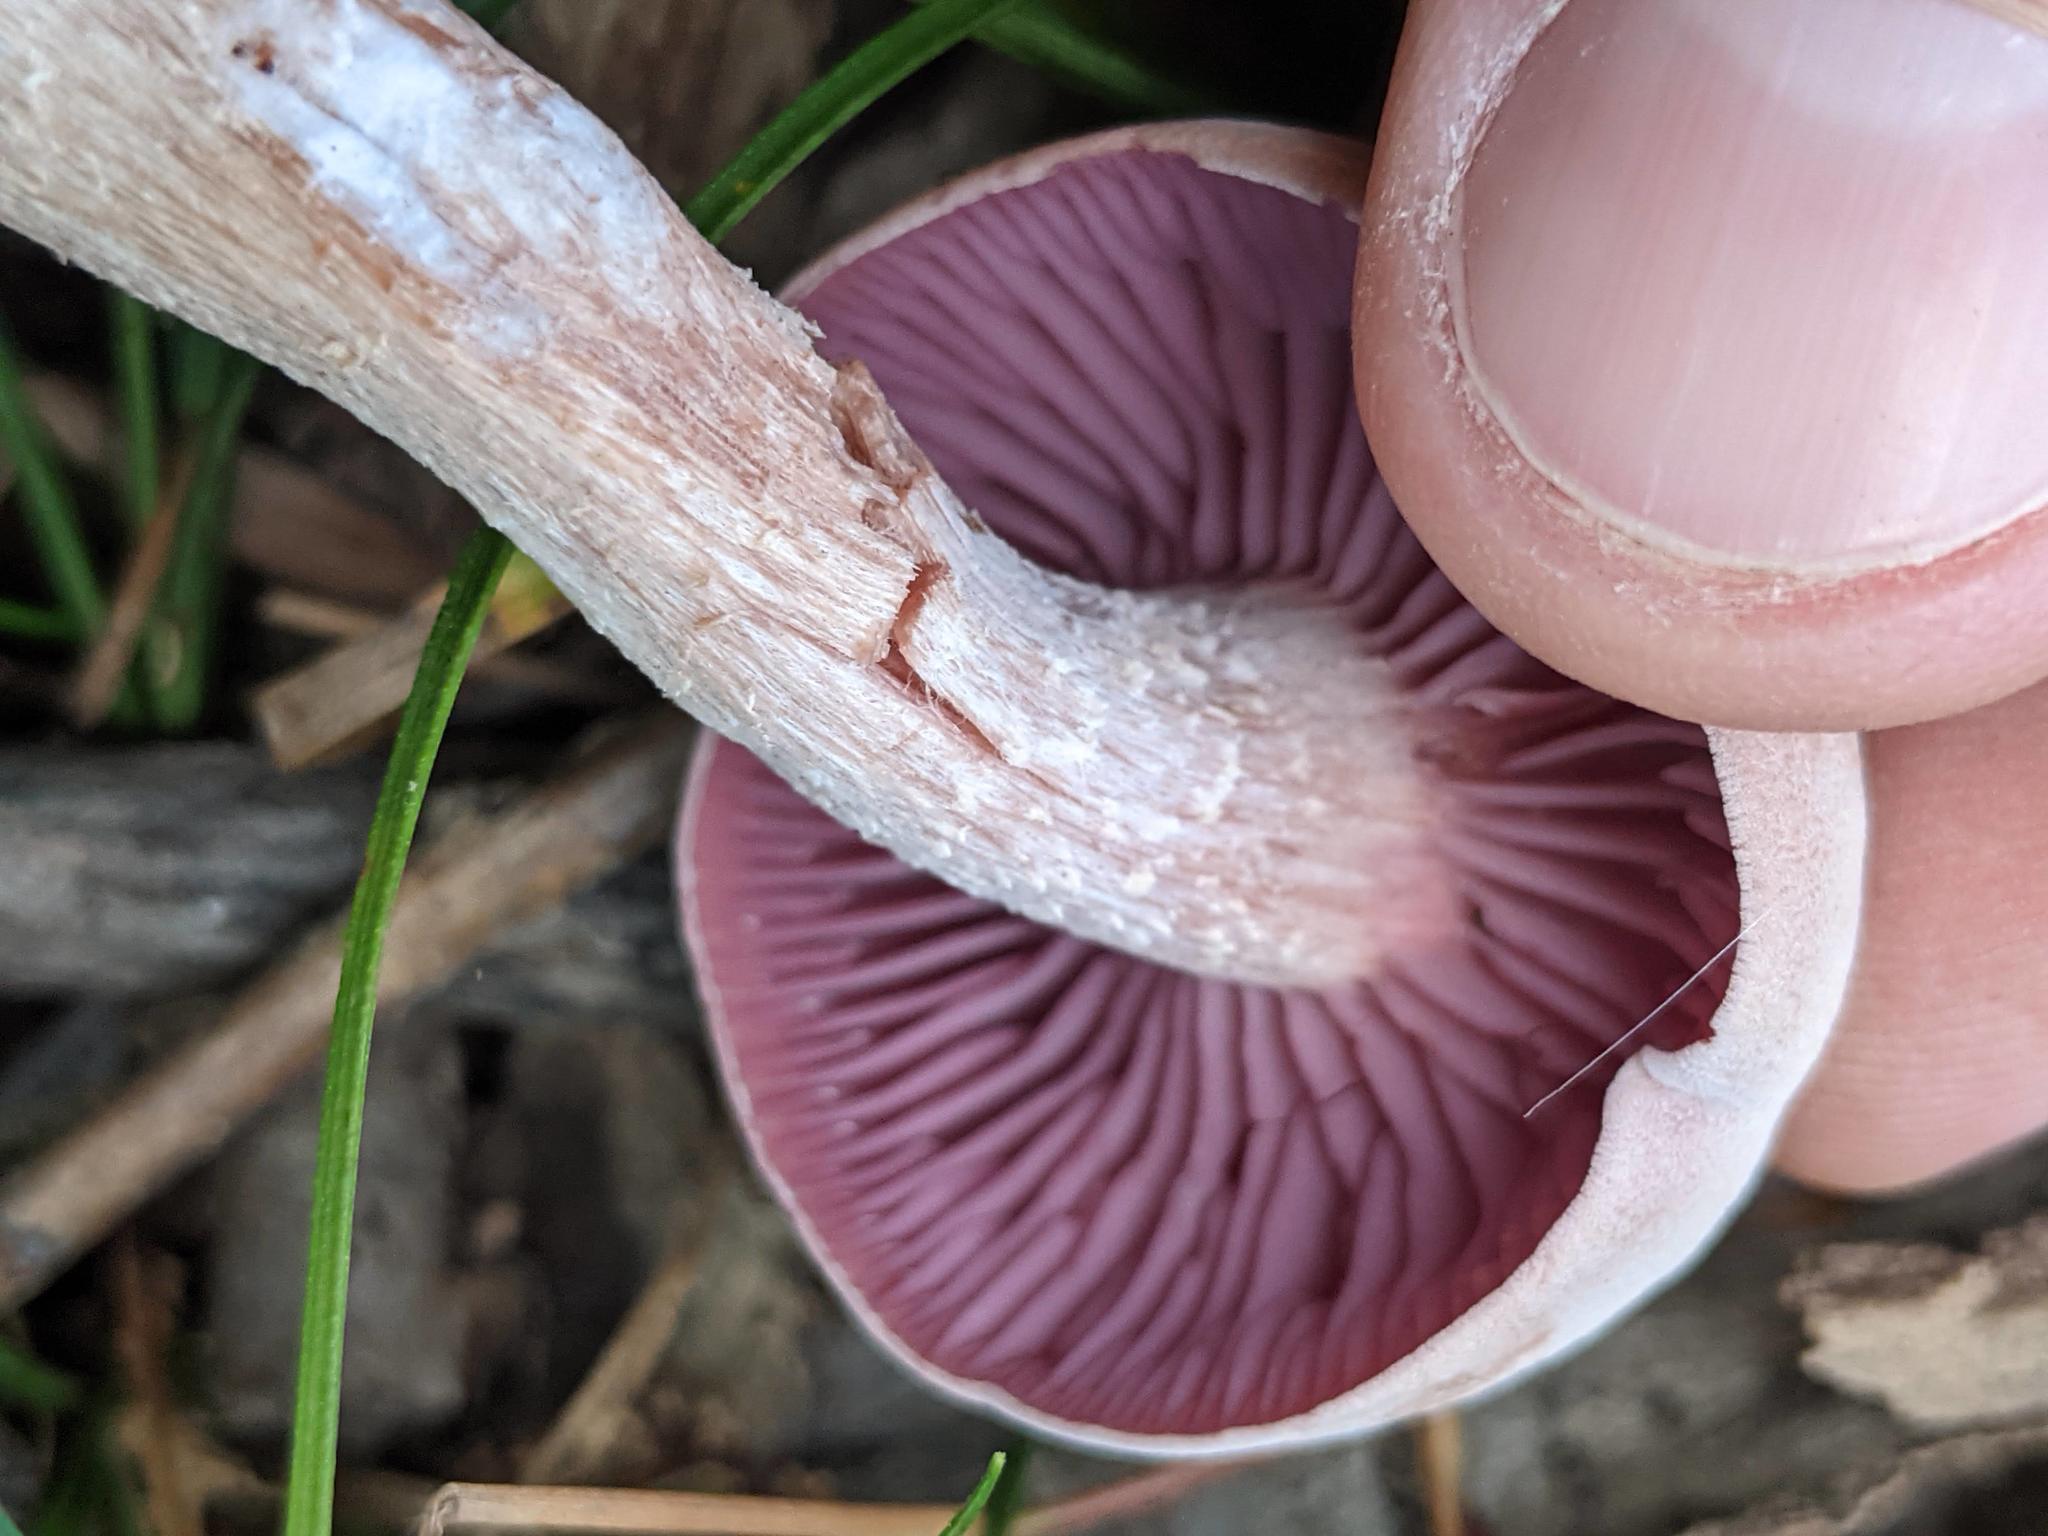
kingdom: Fungi
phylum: Basidiomycota
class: Agaricomycetes
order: Agaricales
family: Hydnangiaceae
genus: Laccaria
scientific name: Laccaria ochropurpurea
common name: Purple laccaria
